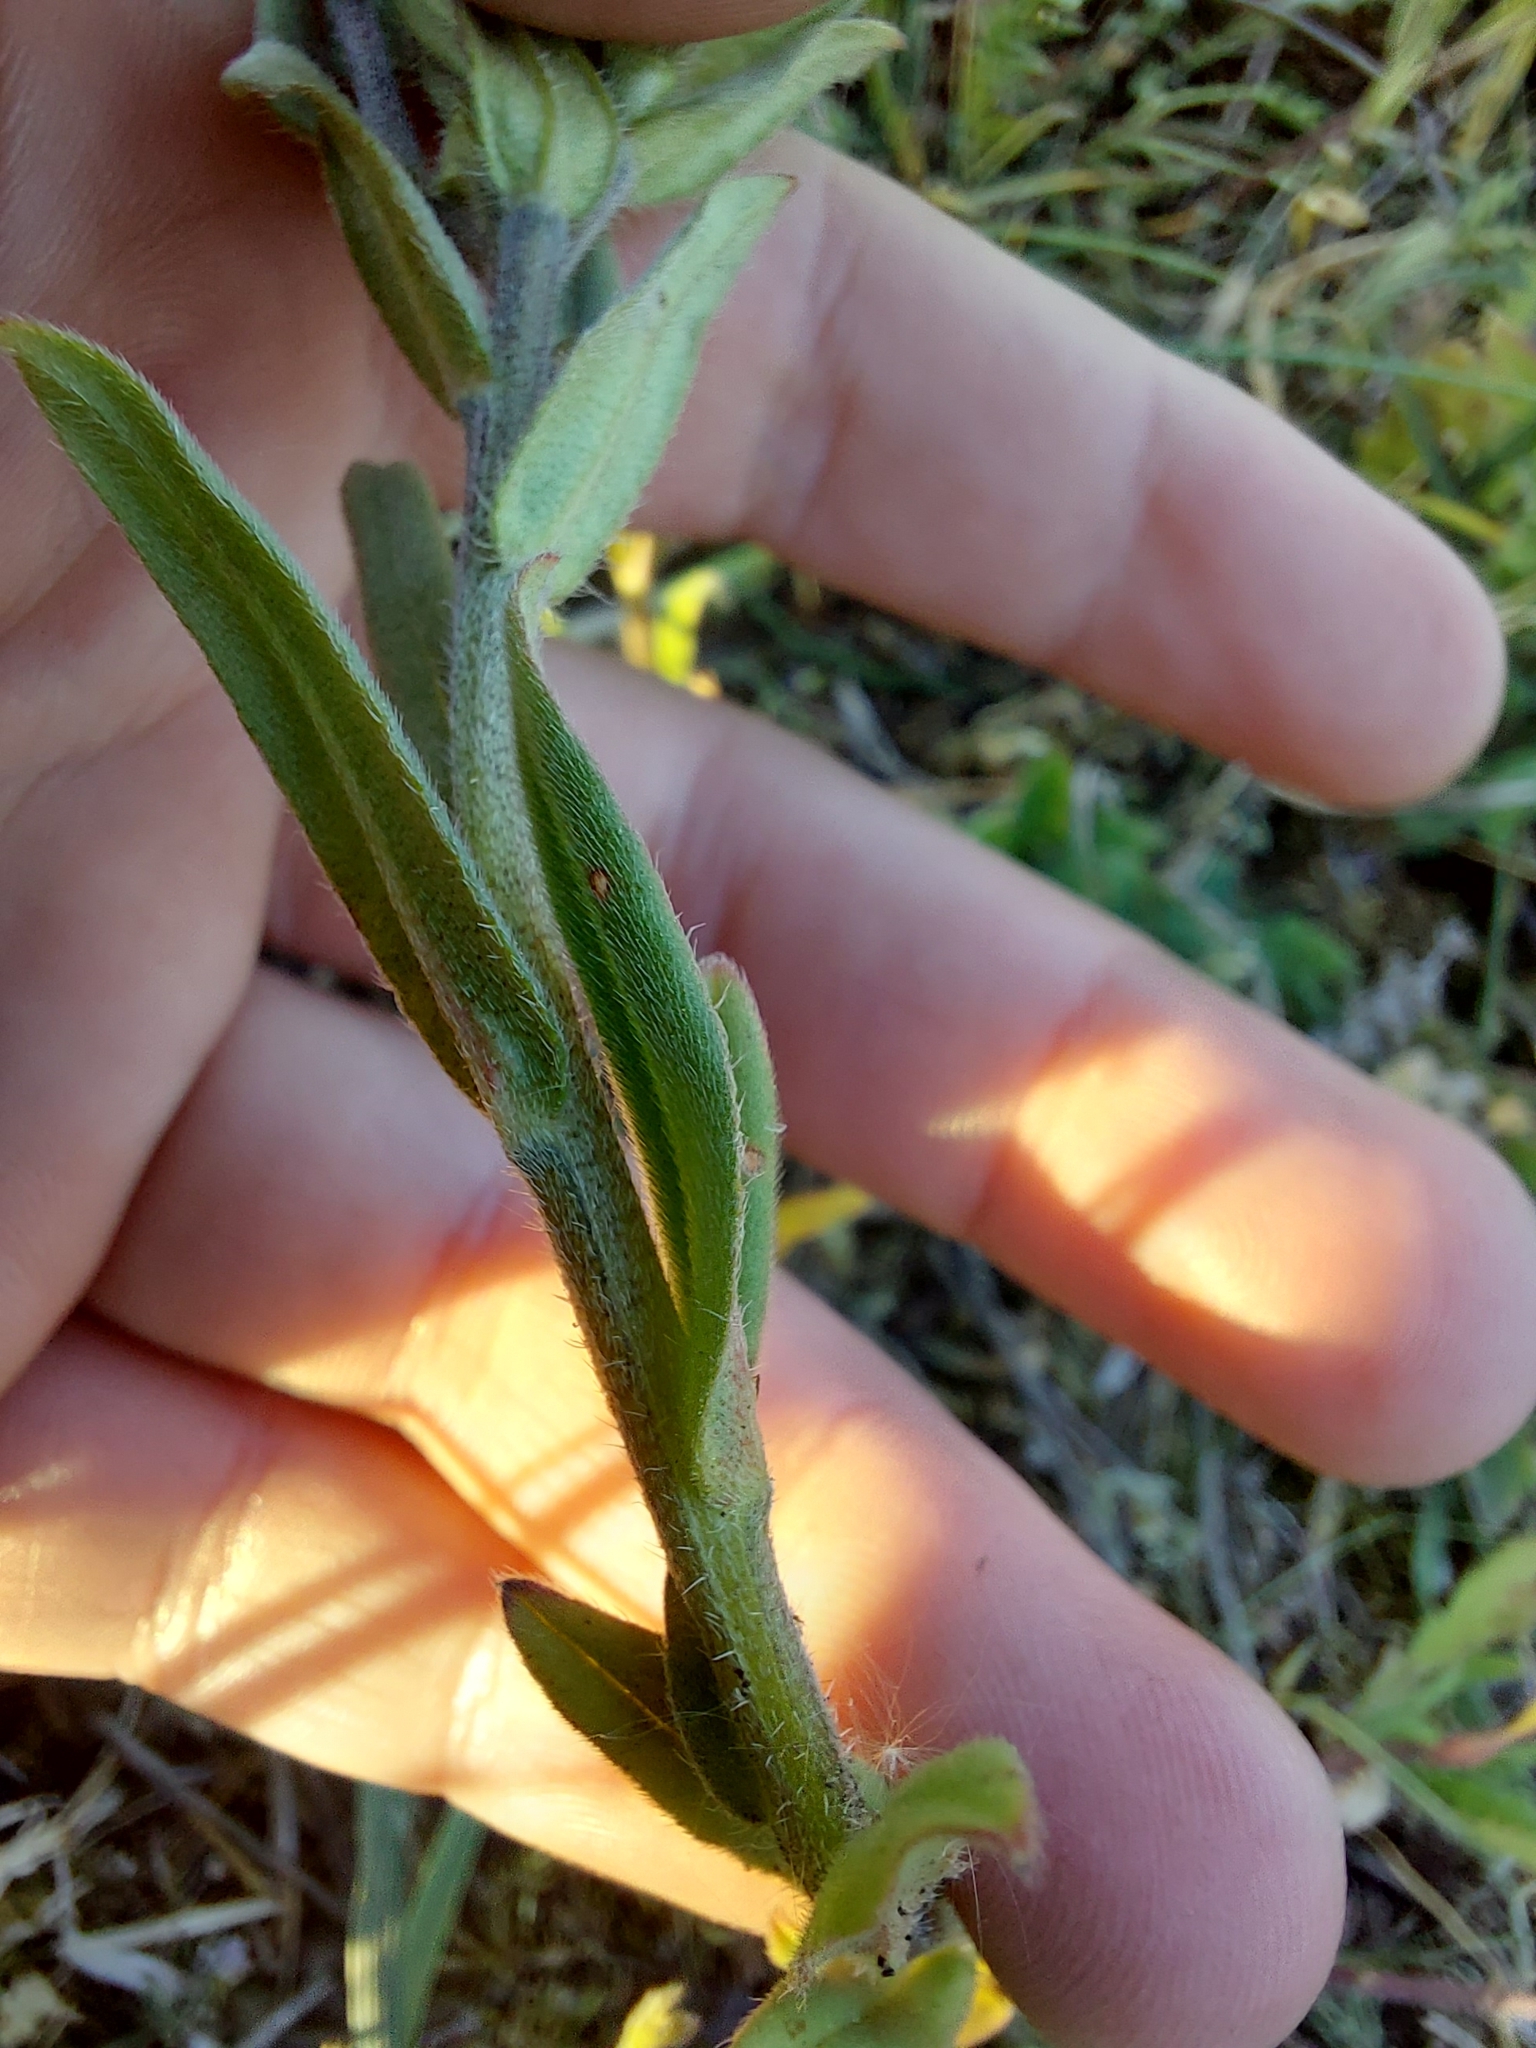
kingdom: Plantae
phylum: Tracheophyta
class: Magnoliopsida
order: Boraginales
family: Boraginaceae
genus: Buglossoides
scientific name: Buglossoides arvensis
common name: Corn gromwell
